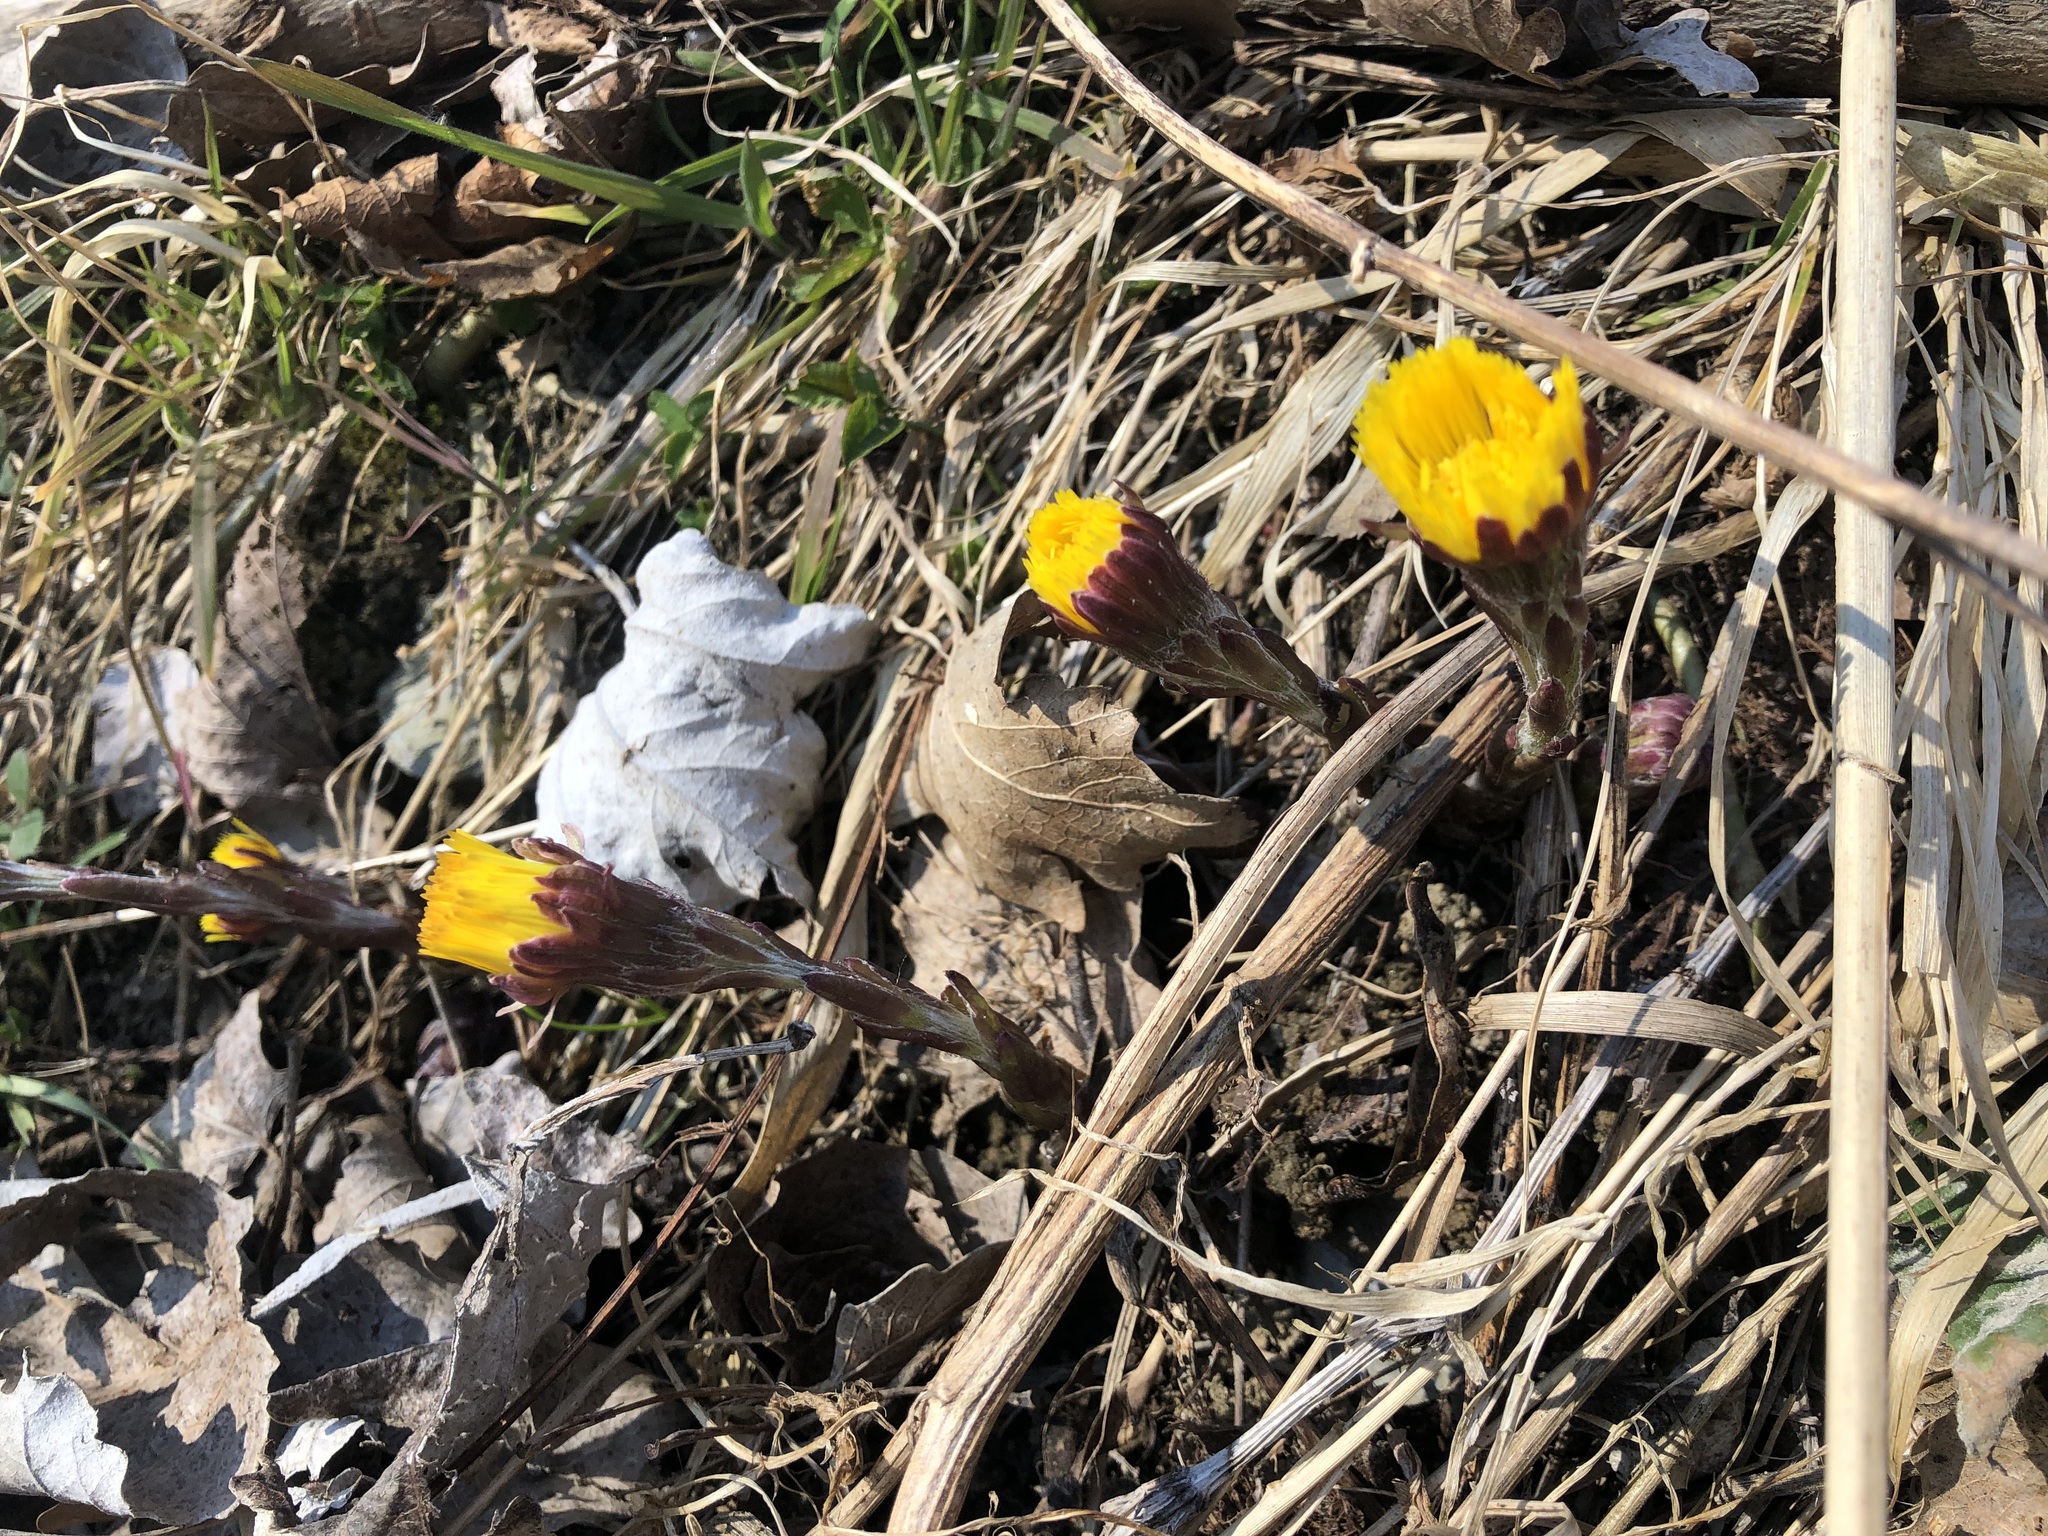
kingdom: Plantae
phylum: Tracheophyta
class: Magnoliopsida
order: Asterales
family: Asteraceae
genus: Tussilago
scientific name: Tussilago farfara
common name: Coltsfoot
